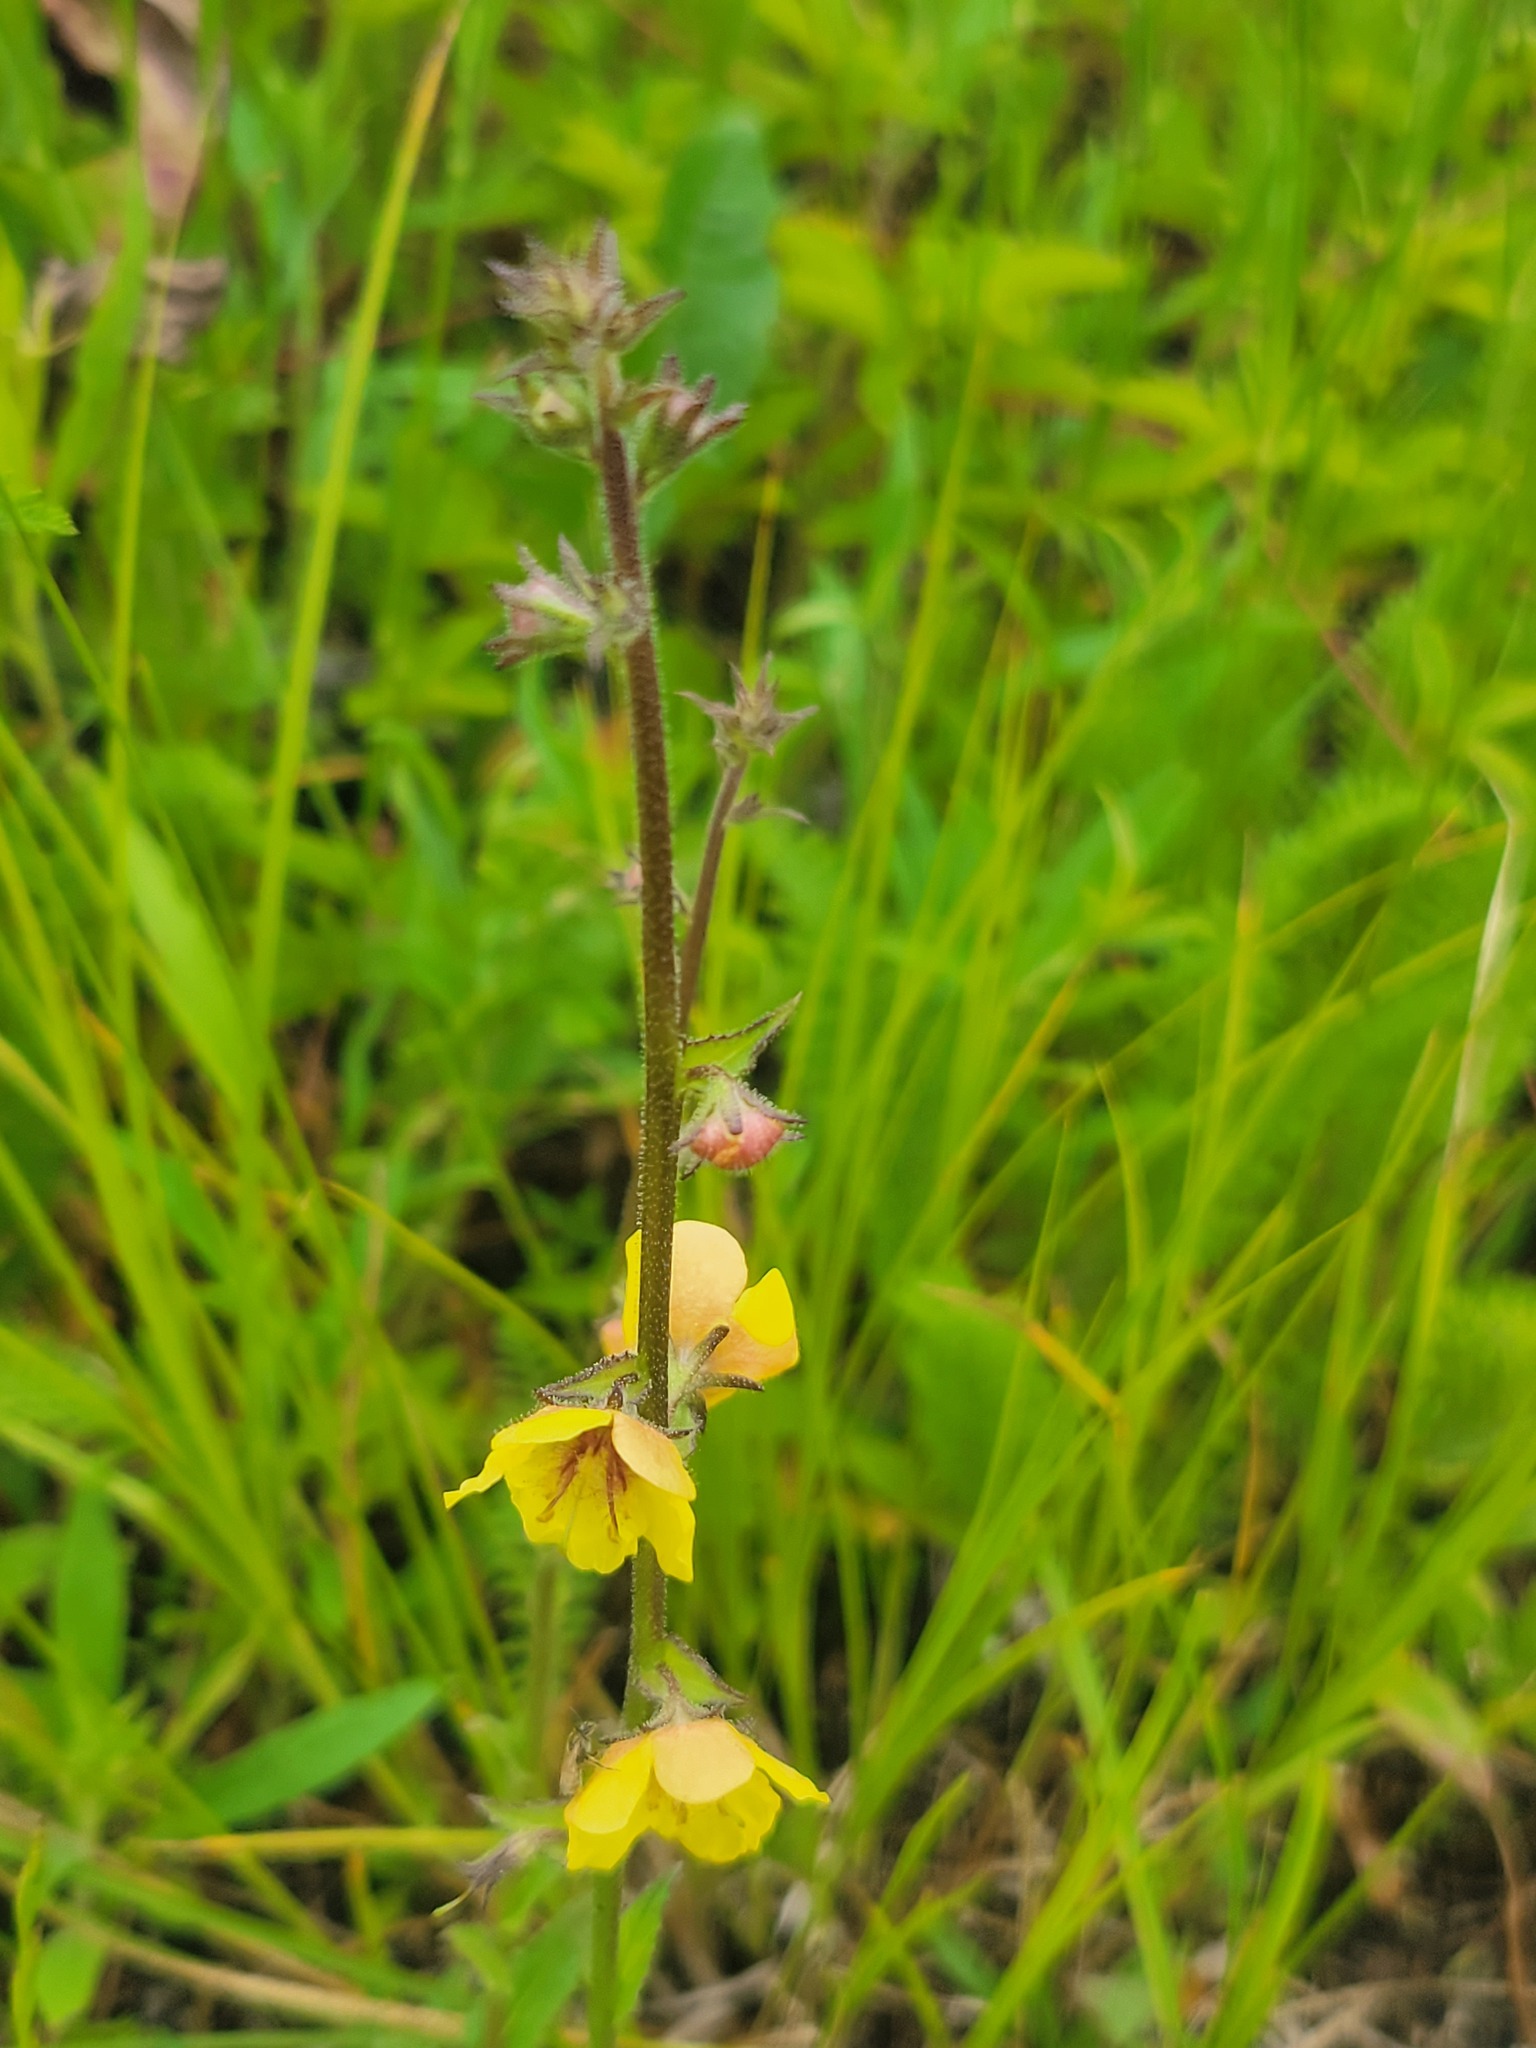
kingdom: Plantae
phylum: Tracheophyta
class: Magnoliopsida
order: Lamiales
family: Scrophulariaceae
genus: Verbascum
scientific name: Verbascum blattaria
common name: Moth mullein
